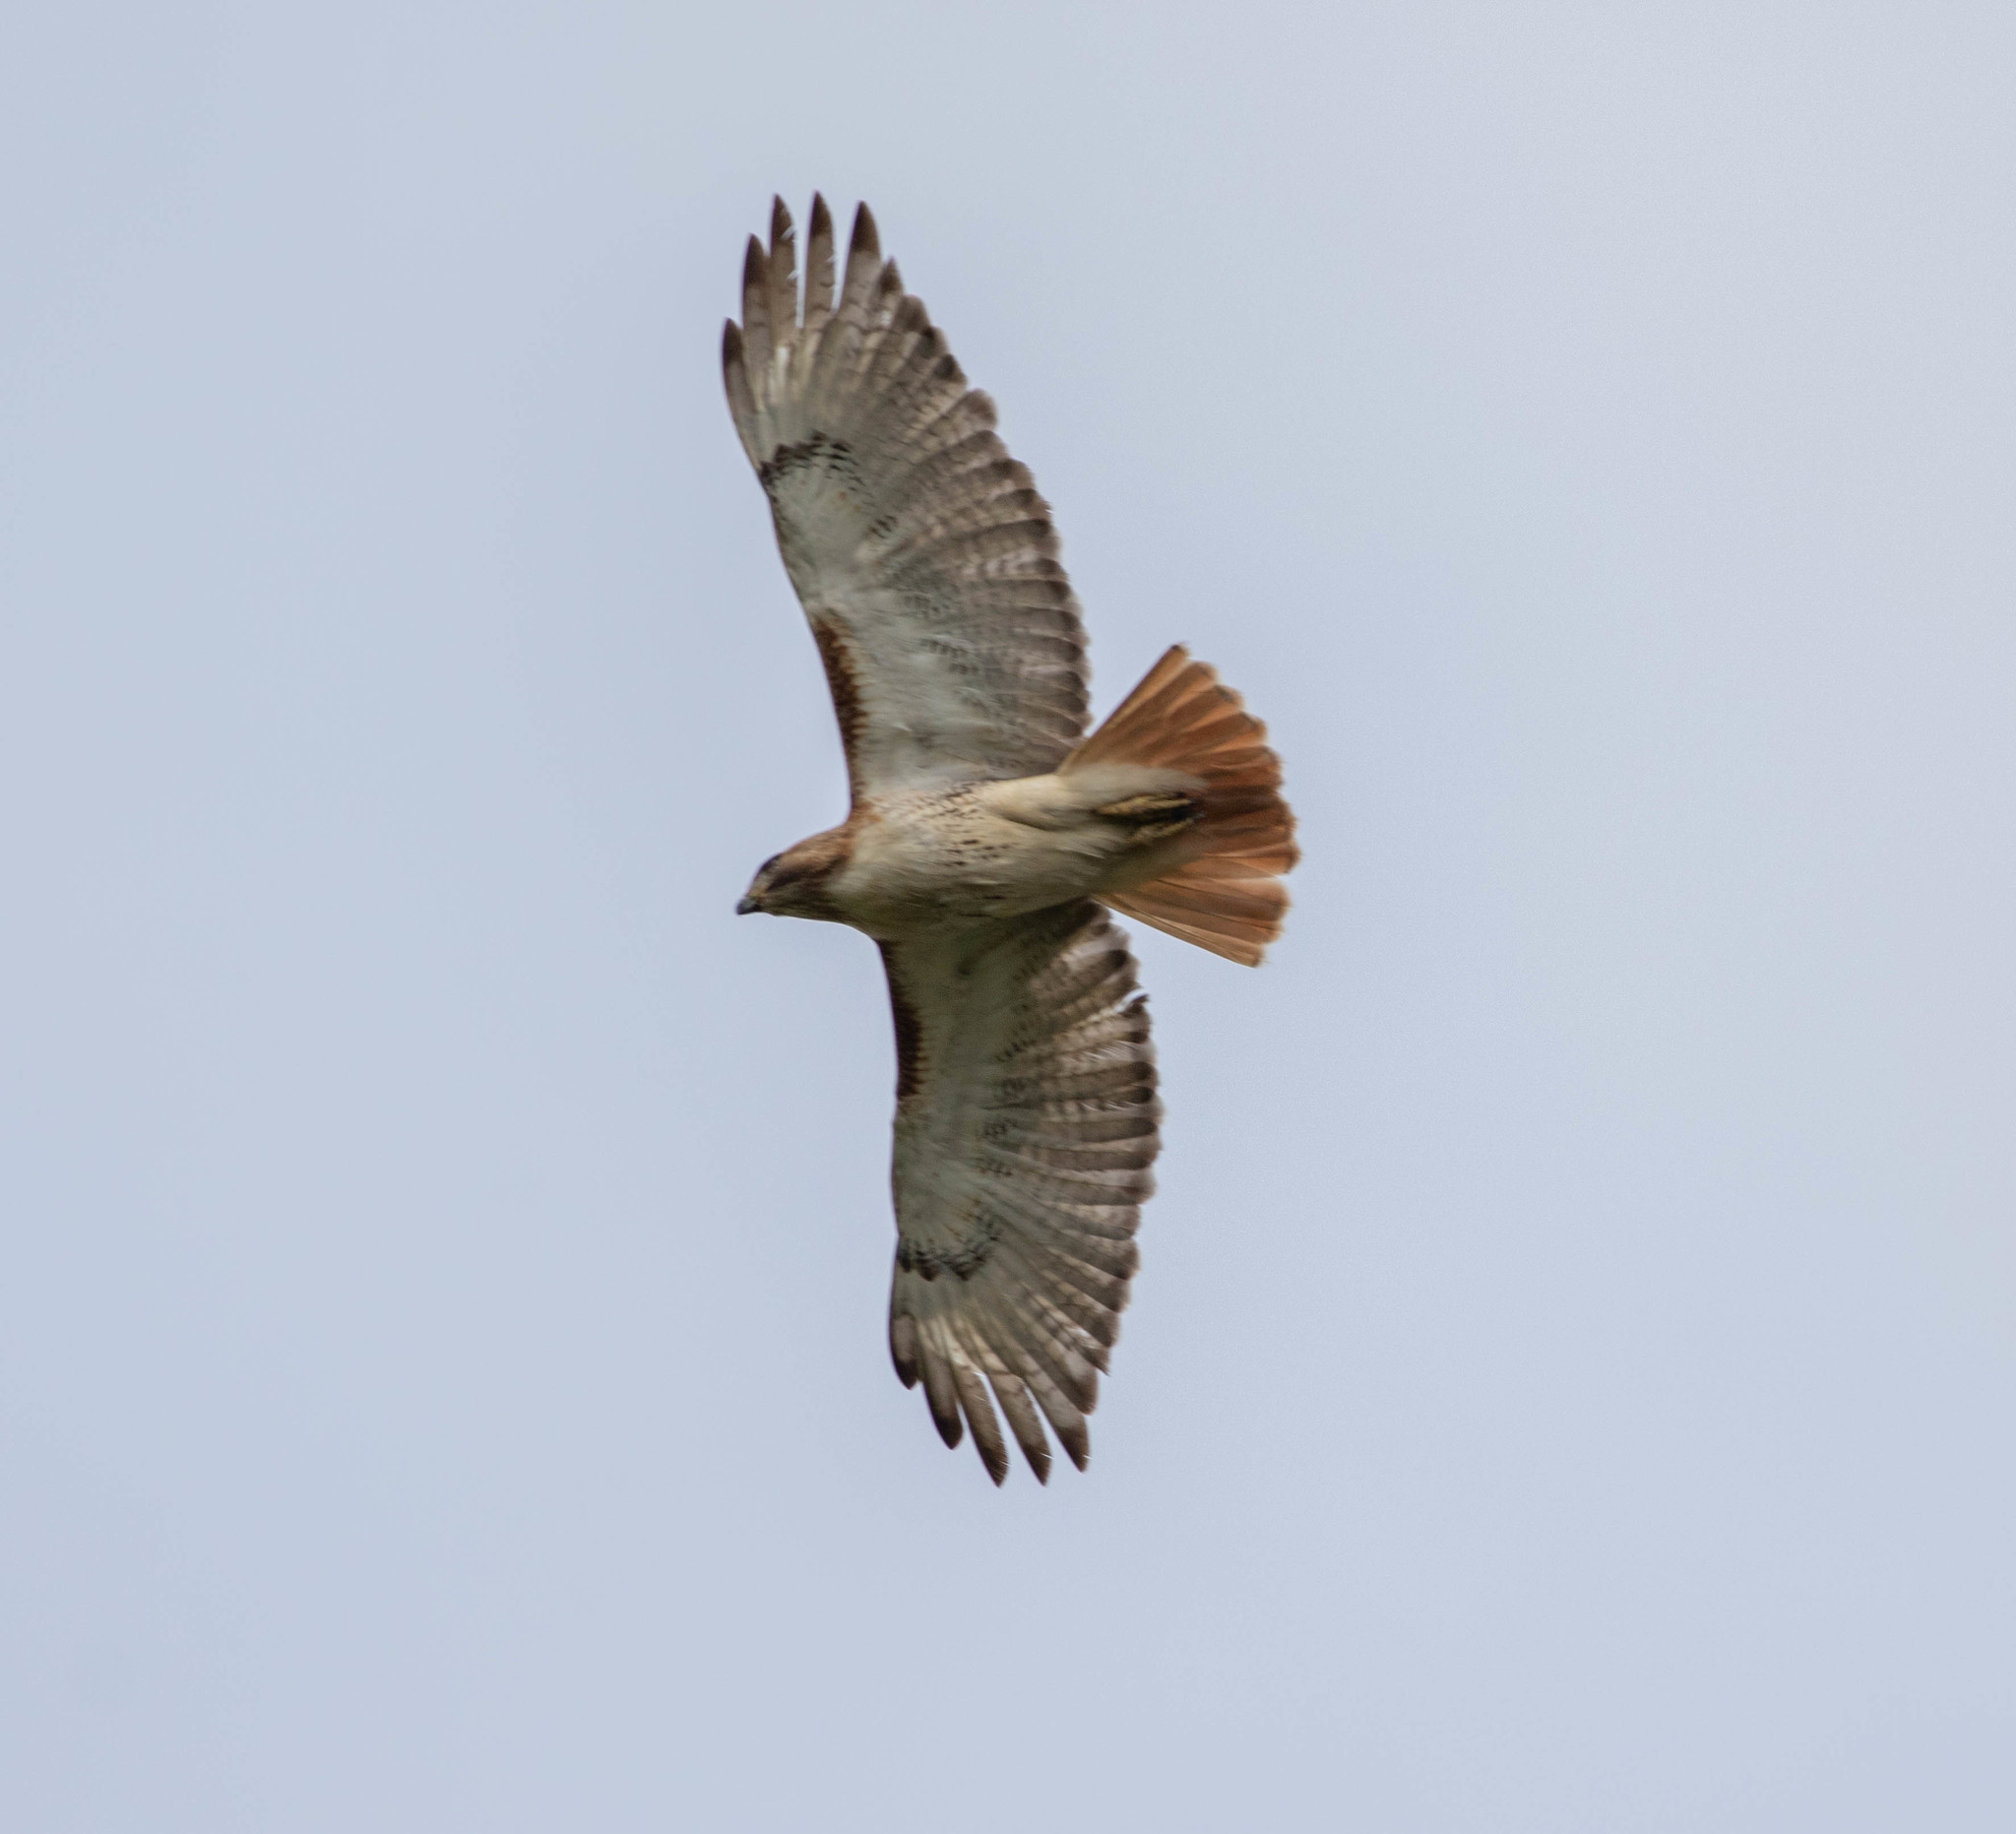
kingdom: Animalia
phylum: Chordata
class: Aves
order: Accipitriformes
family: Accipitridae
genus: Buteo
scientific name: Buteo jamaicensis
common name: Red-tailed hawk
